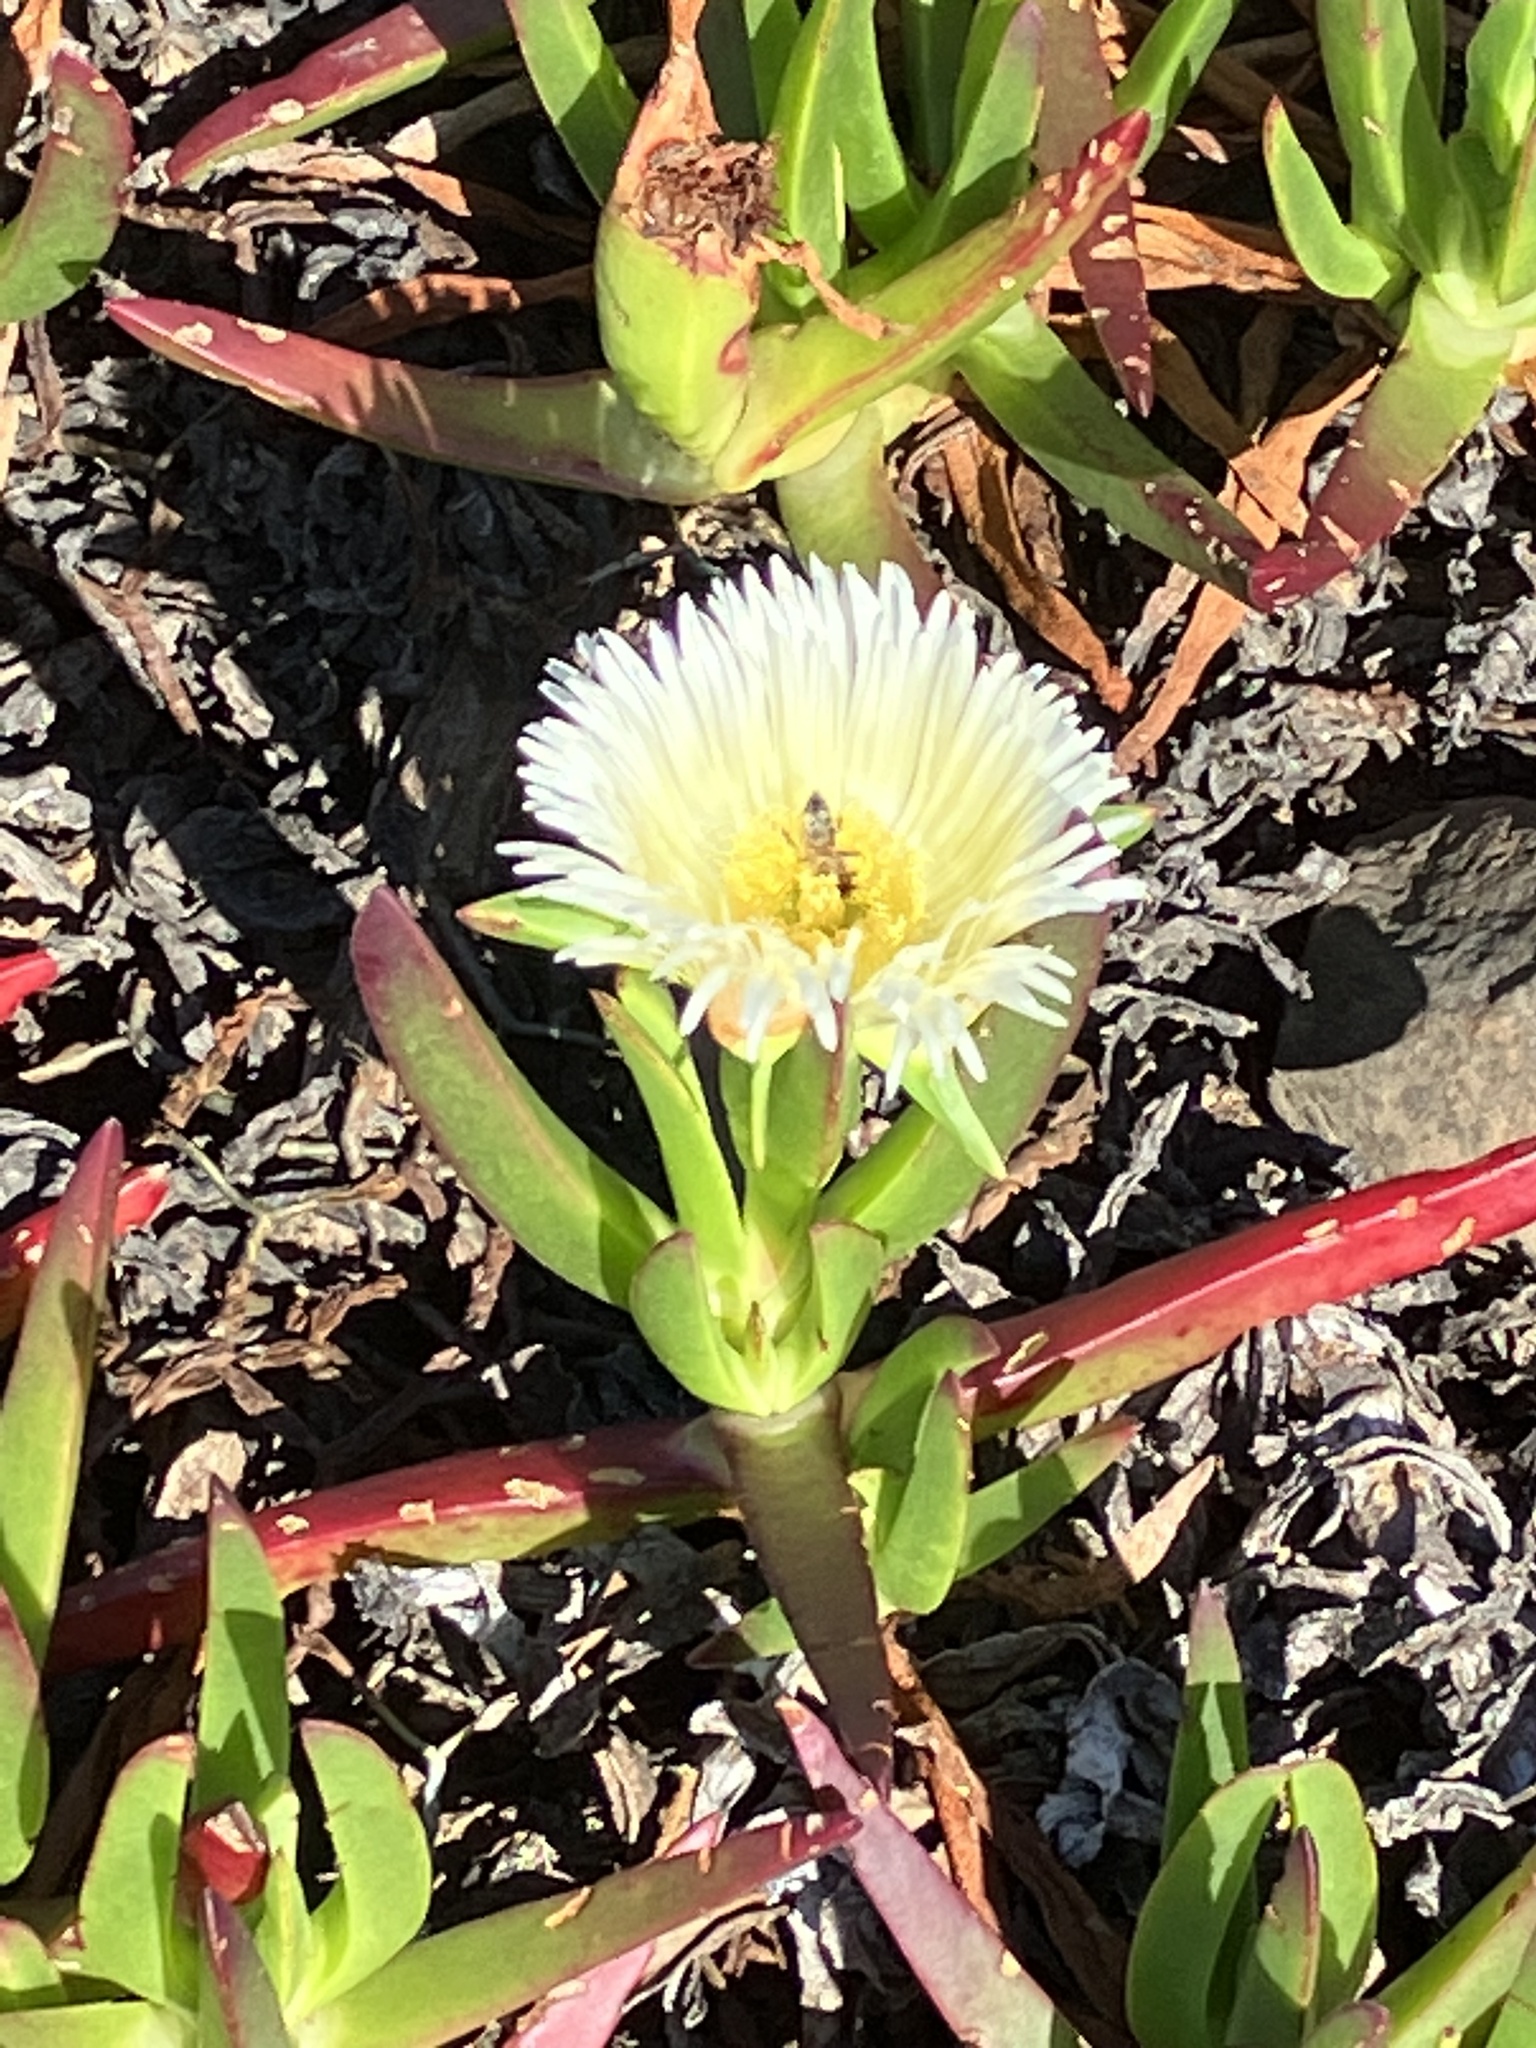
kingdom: Animalia
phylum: Arthropoda
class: Insecta
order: Hymenoptera
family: Apidae
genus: Apis
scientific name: Apis mellifera
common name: Honey bee
